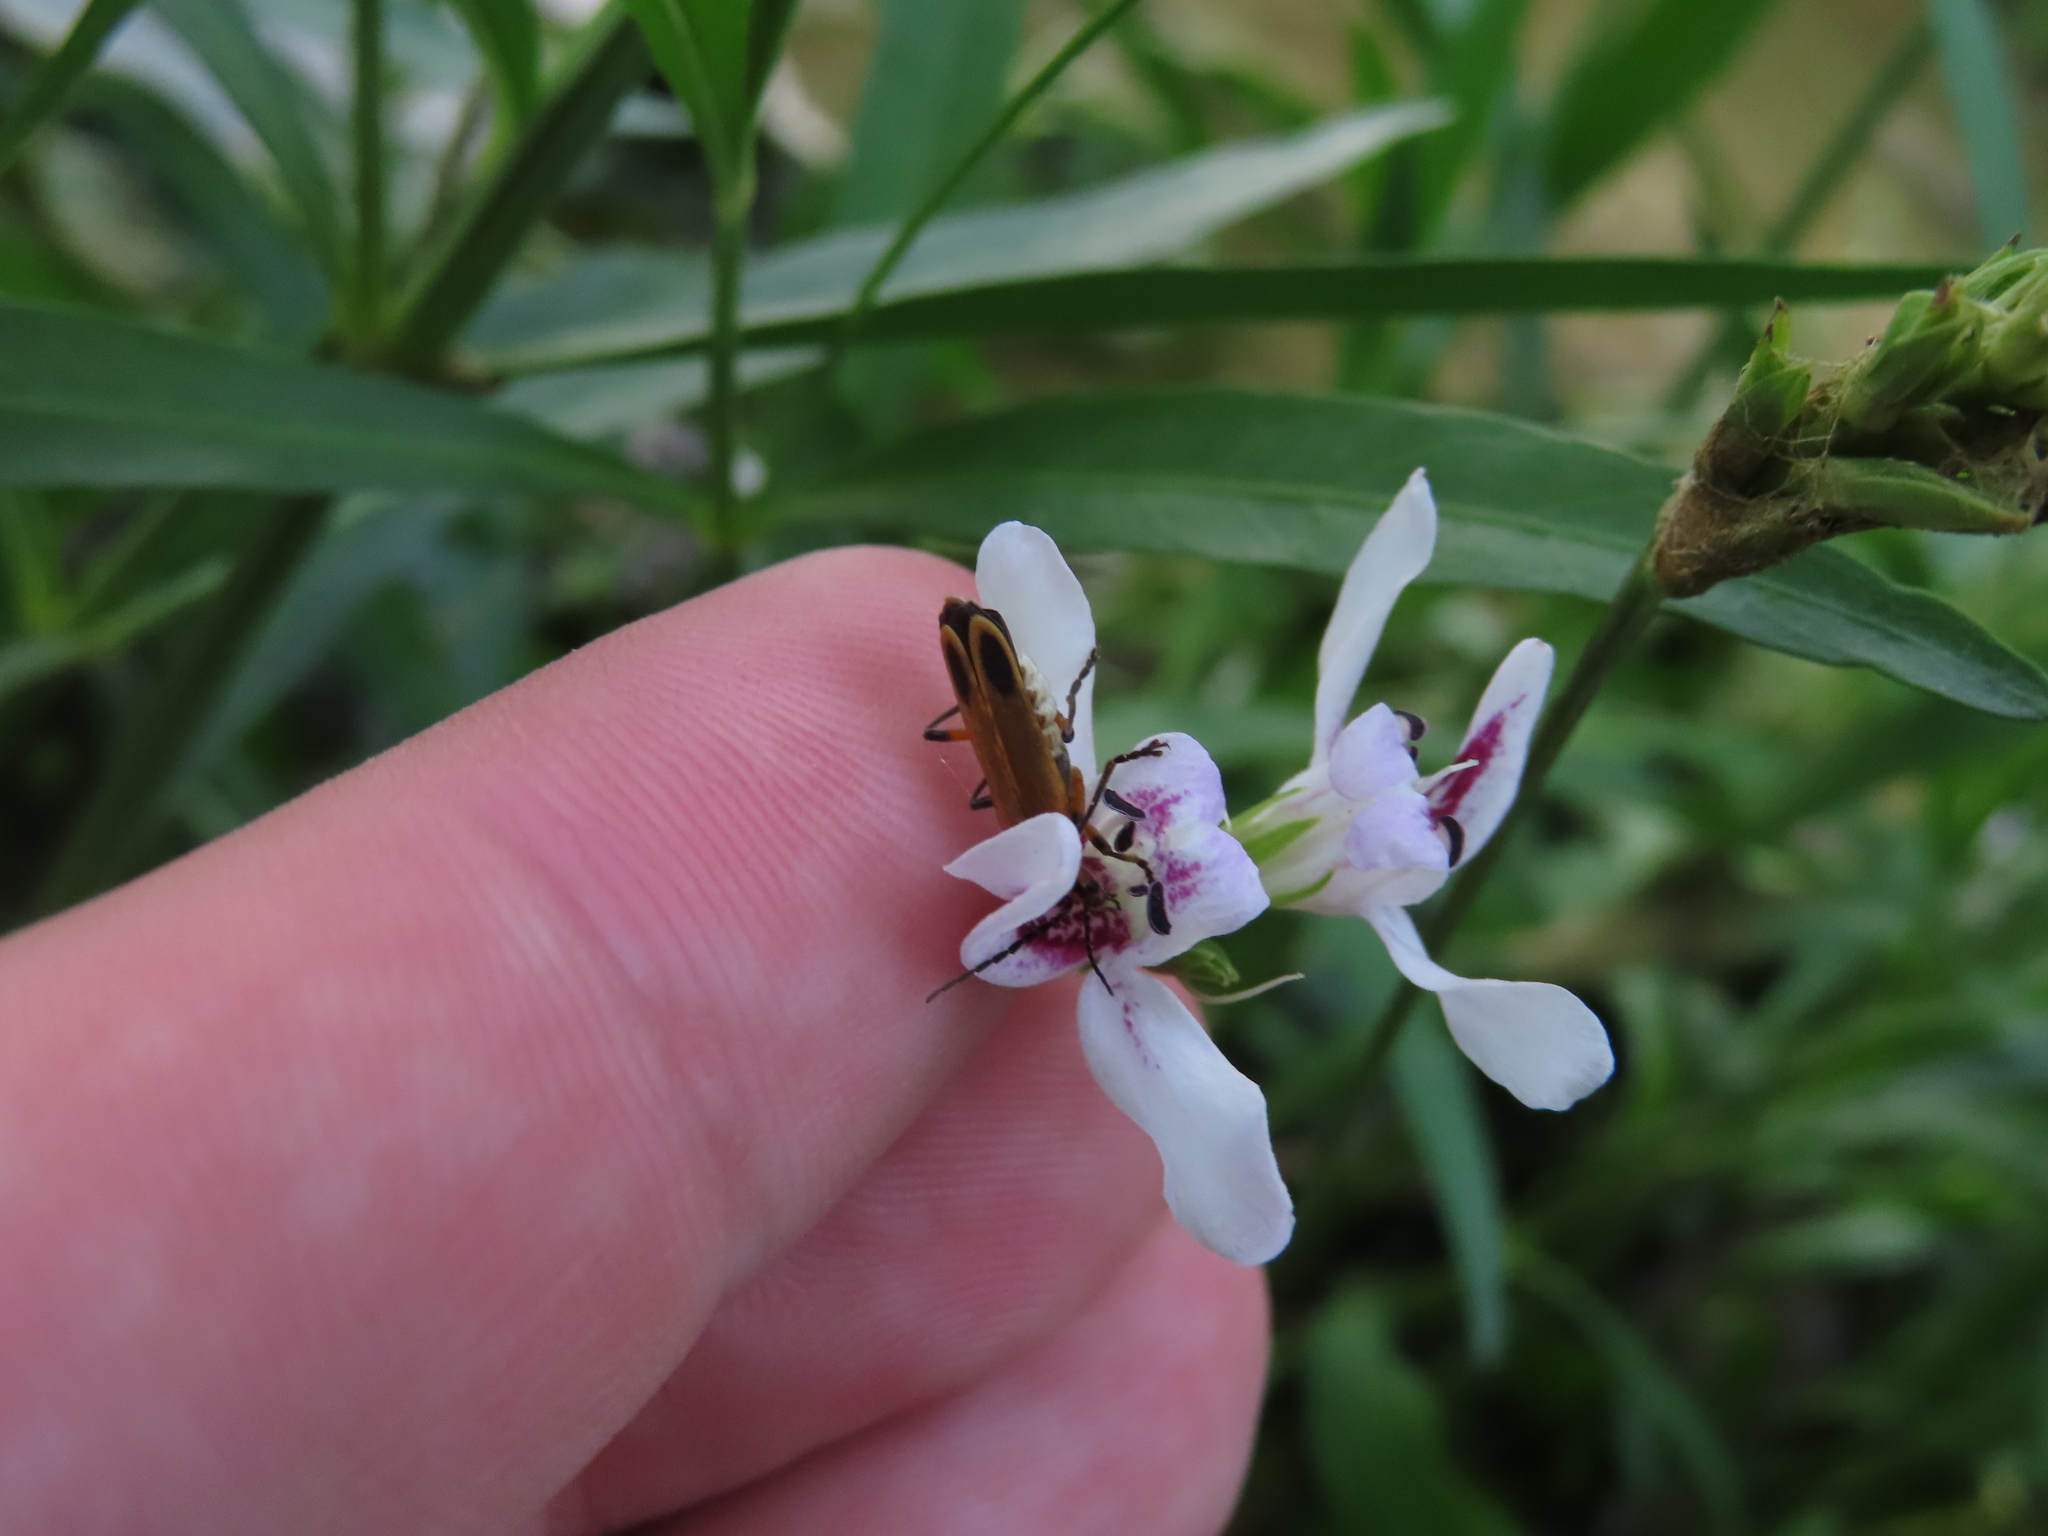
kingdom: Animalia
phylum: Arthropoda
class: Insecta
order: Coleoptera
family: Cantharidae
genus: Chauliognathus
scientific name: Chauliognathus marginatus
